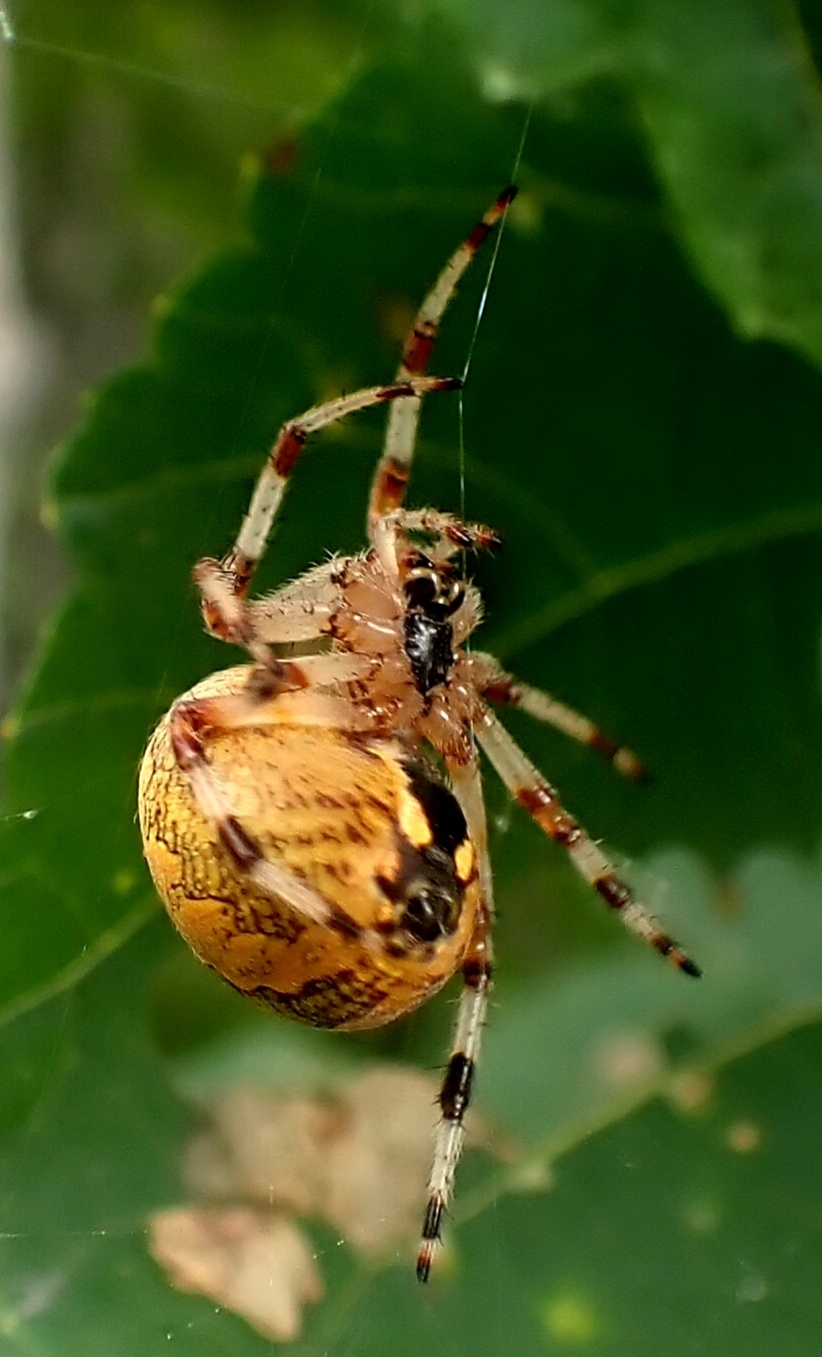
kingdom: Animalia
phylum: Arthropoda
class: Arachnida
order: Araneae
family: Araneidae
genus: Araneus
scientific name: Araneus marmoreus
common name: Marbled orbweaver
